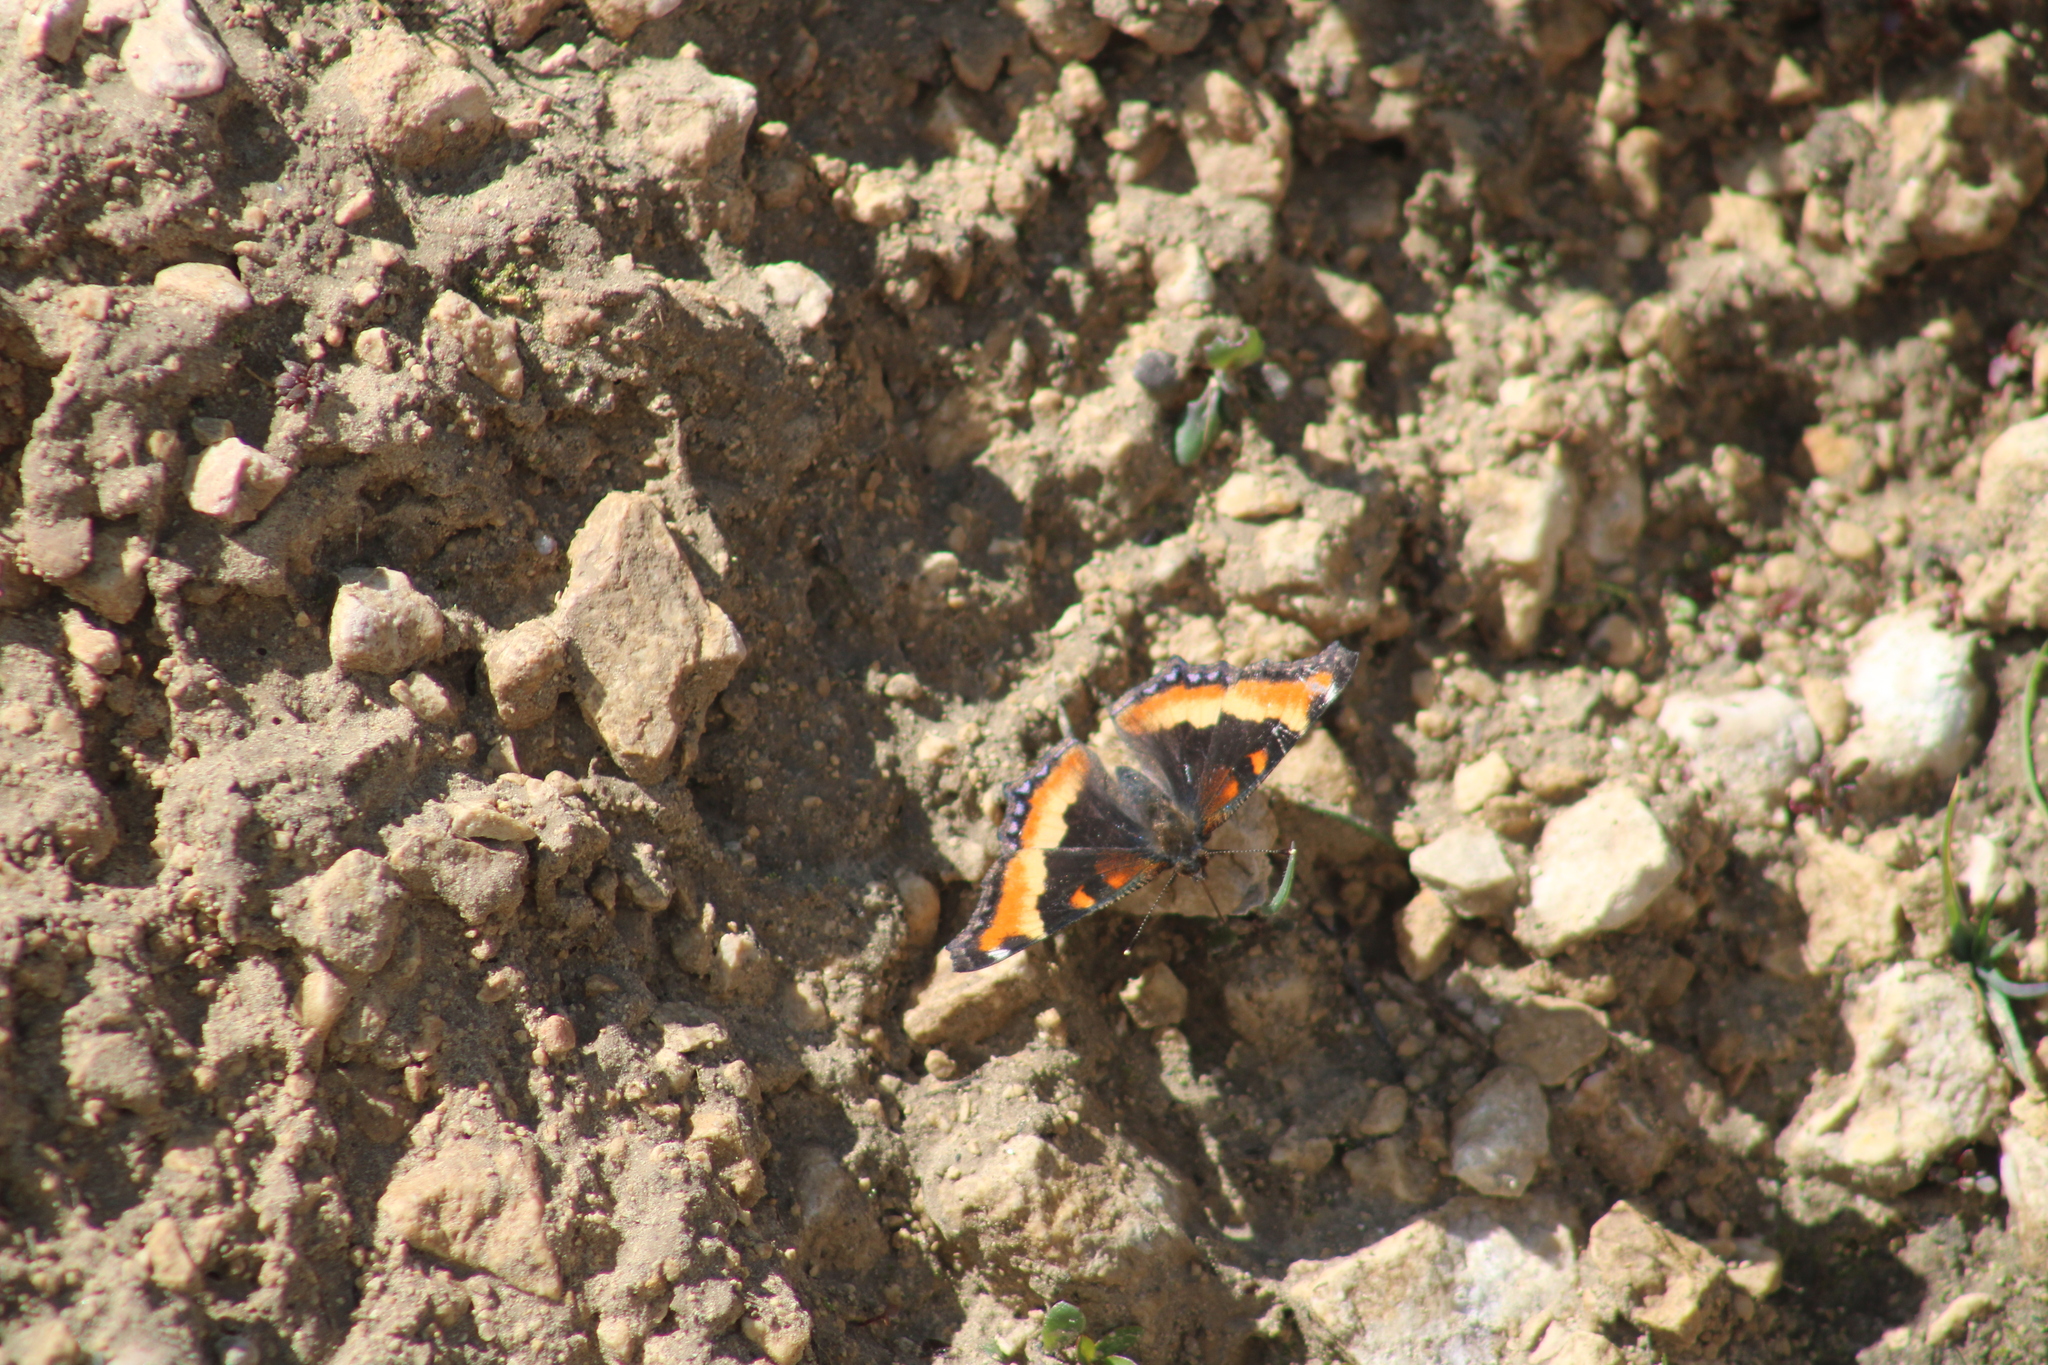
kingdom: Animalia
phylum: Arthropoda
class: Insecta
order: Lepidoptera
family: Nymphalidae
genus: Aglais
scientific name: Aglais milberti
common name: Milbert's tortoiseshell
